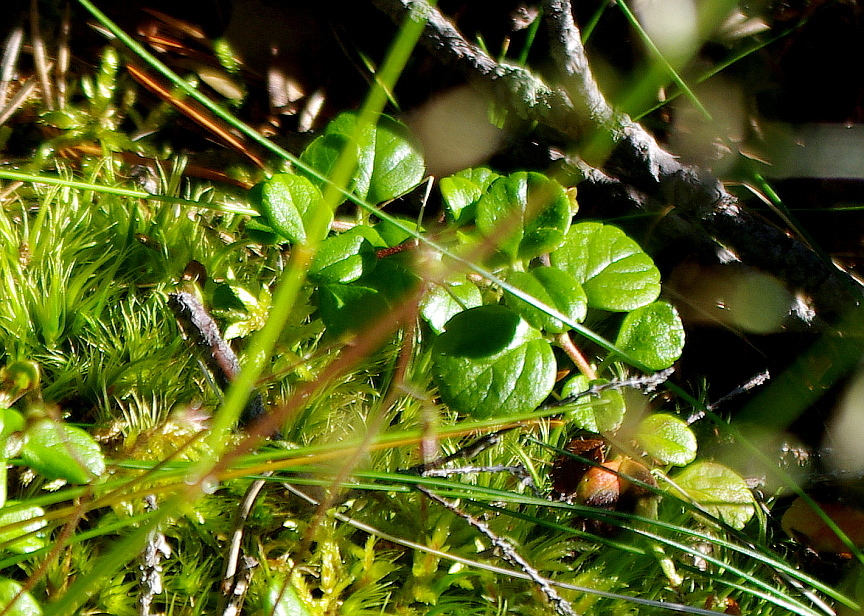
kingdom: Plantae
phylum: Tracheophyta
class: Magnoliopsida
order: Dipsacales
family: Caprifoliaceae
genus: Linnaea
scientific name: Linnaea borealis
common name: Twinflower
